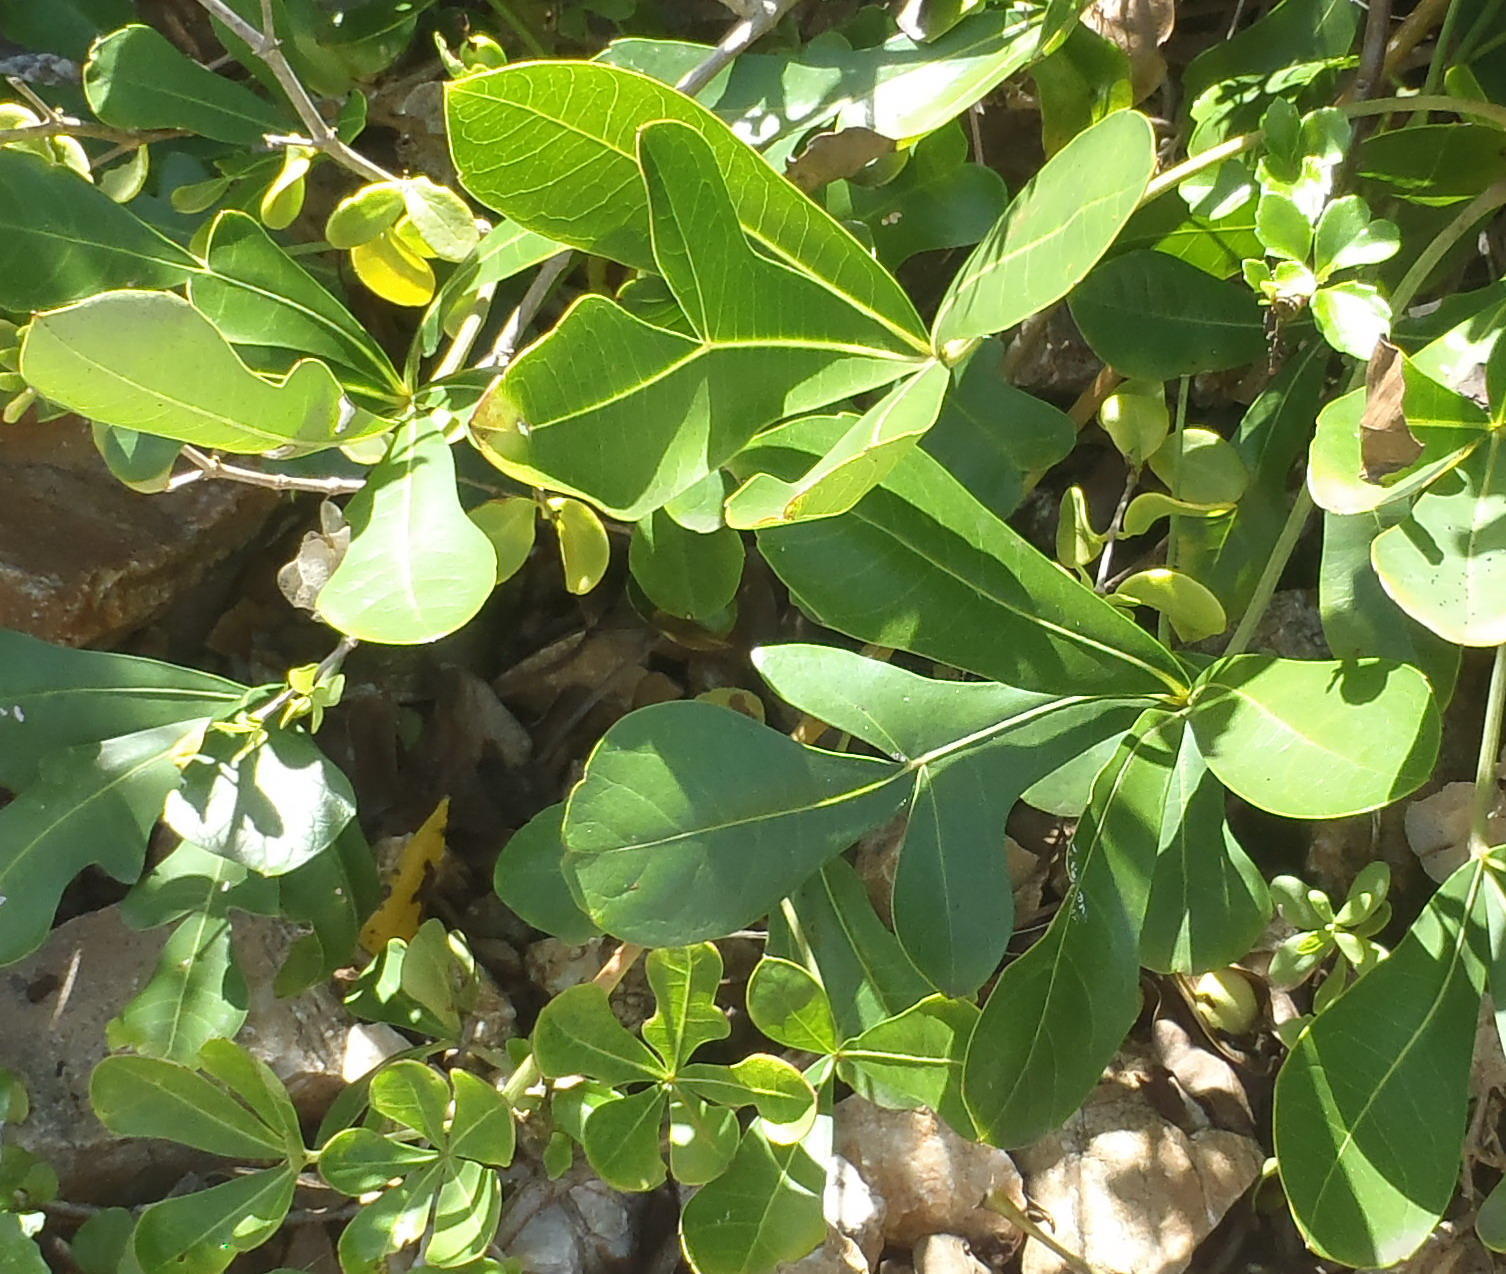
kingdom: Plantae
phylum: Tracheophyta
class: Magnoliopsida
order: Apiales
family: Araliaceae
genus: Cussonia
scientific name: Cussonia thyrsiflora
